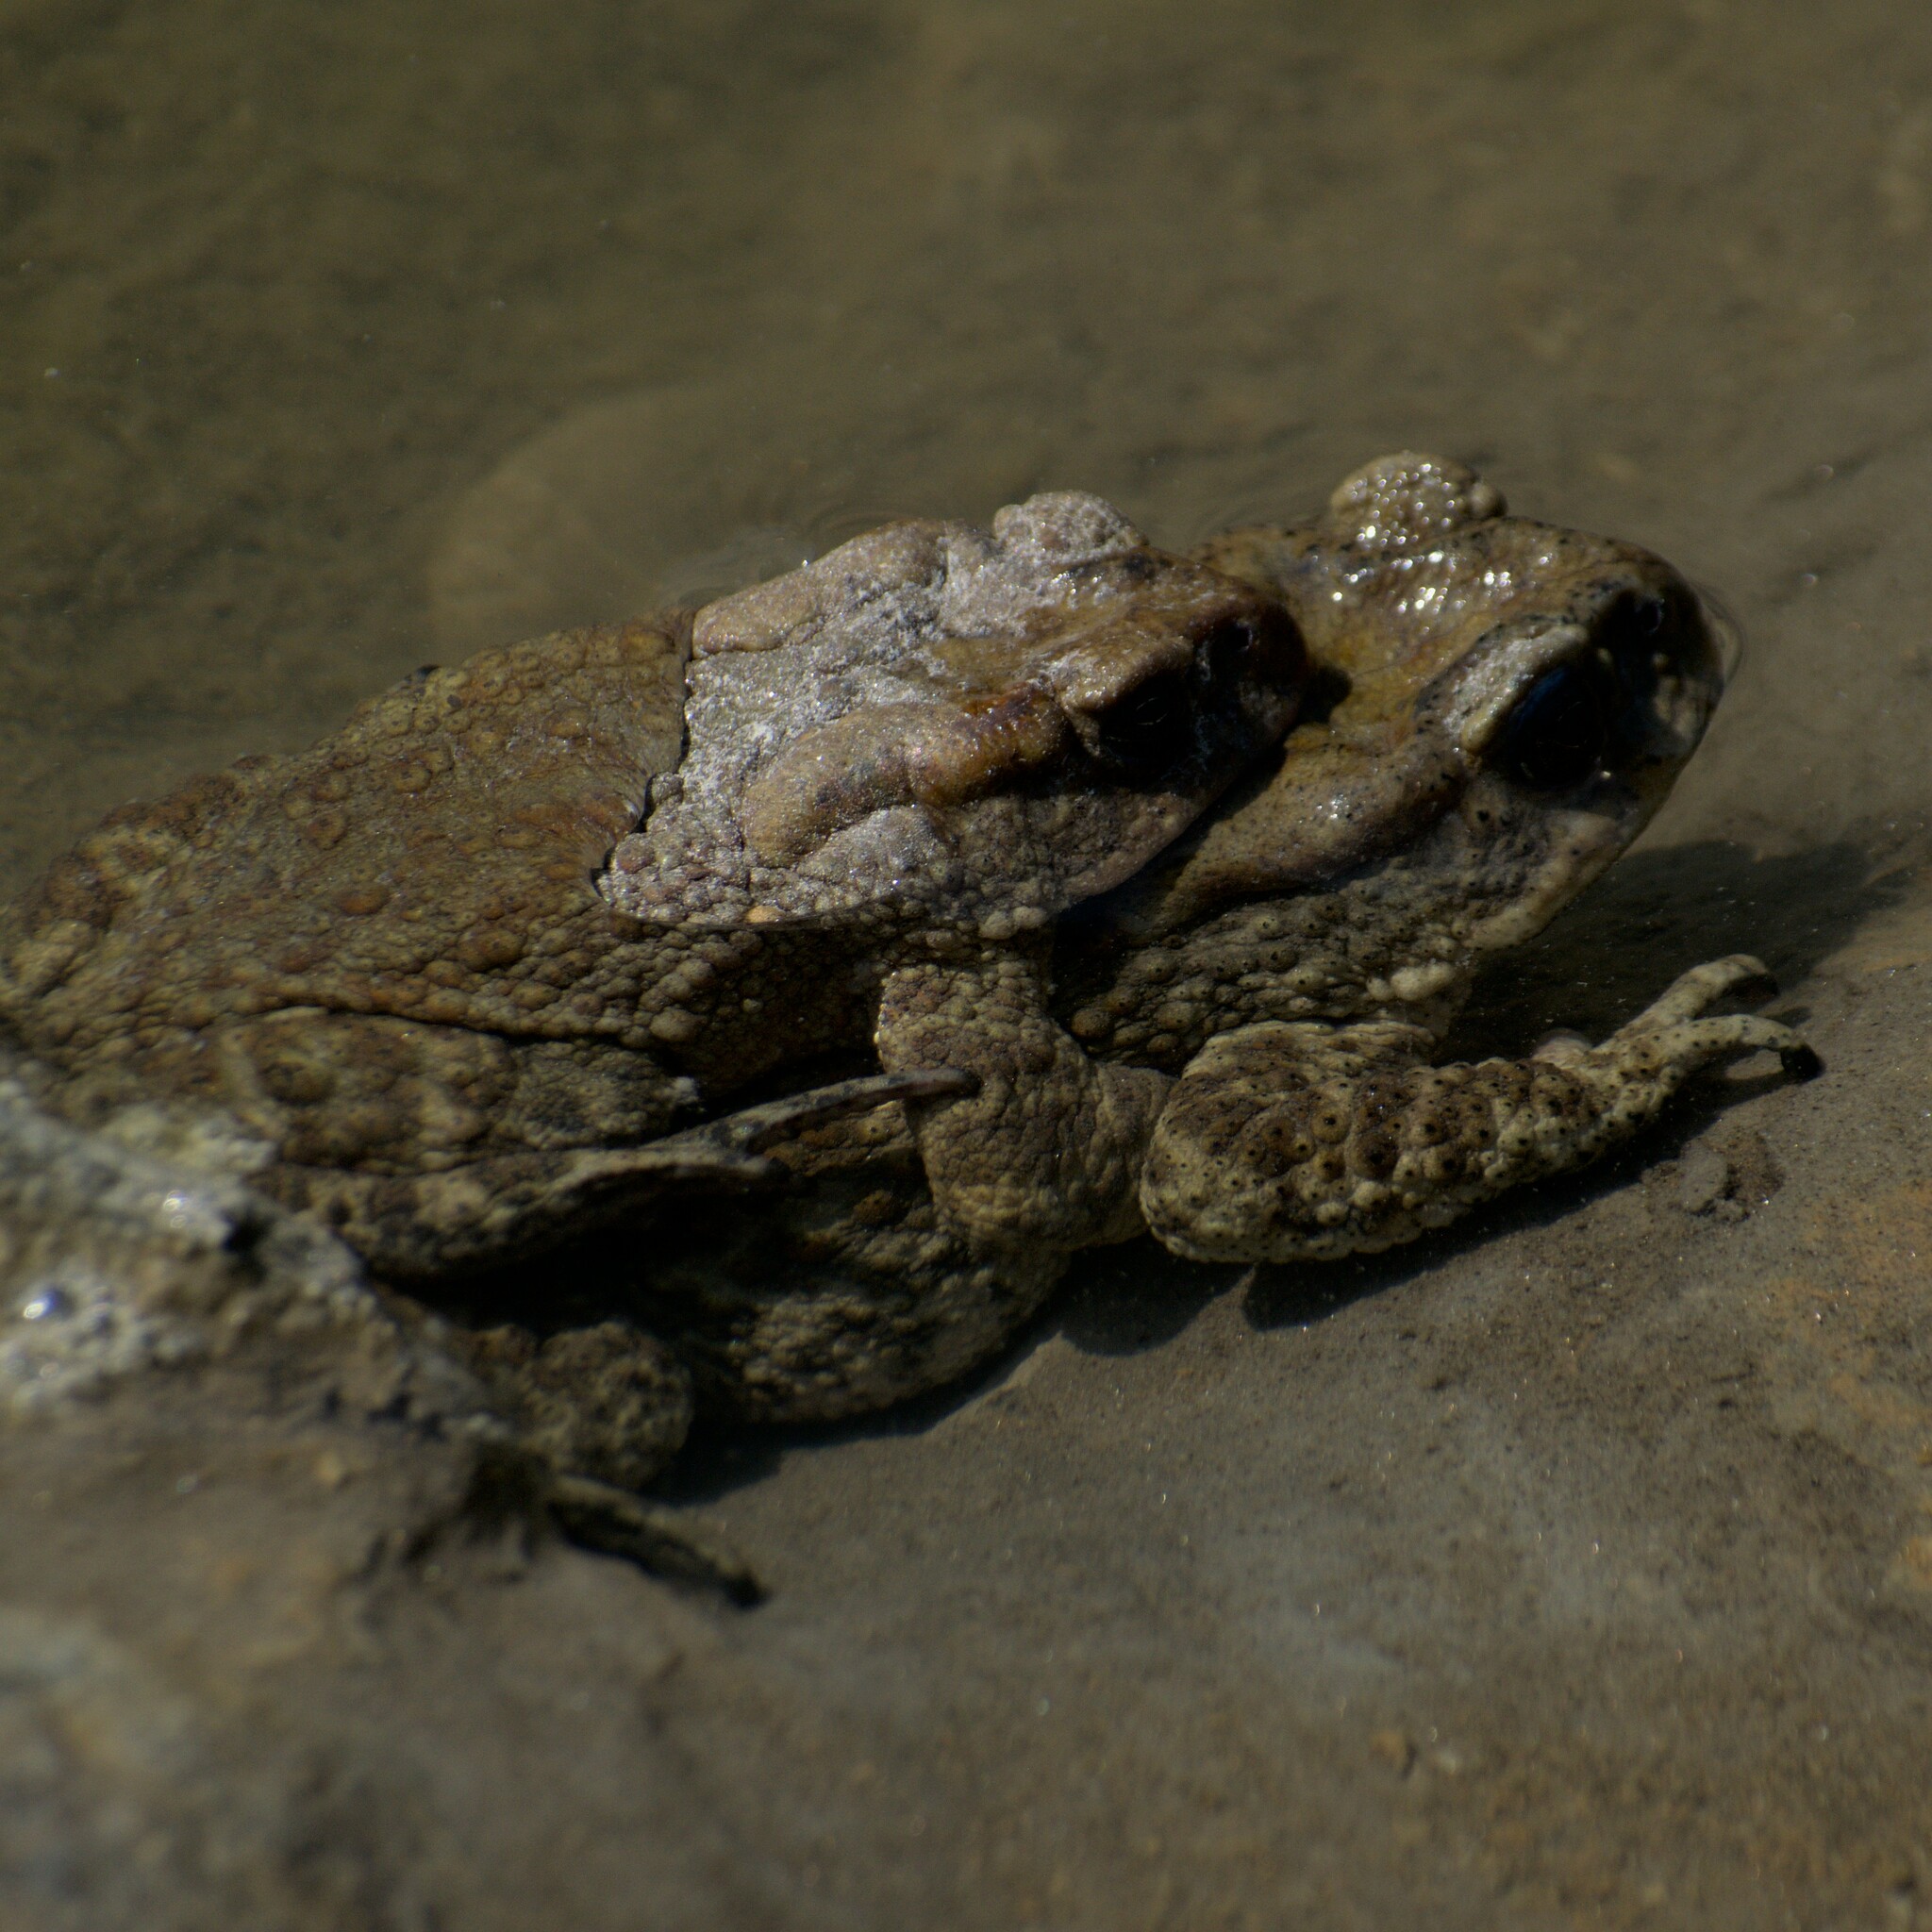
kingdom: Animalia
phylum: Chordata
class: Amphibia
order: Anura
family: Bufonidae
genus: Duttaphrynus
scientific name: Duttaphrynus himalayanus
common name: Günther's high altitude toad
